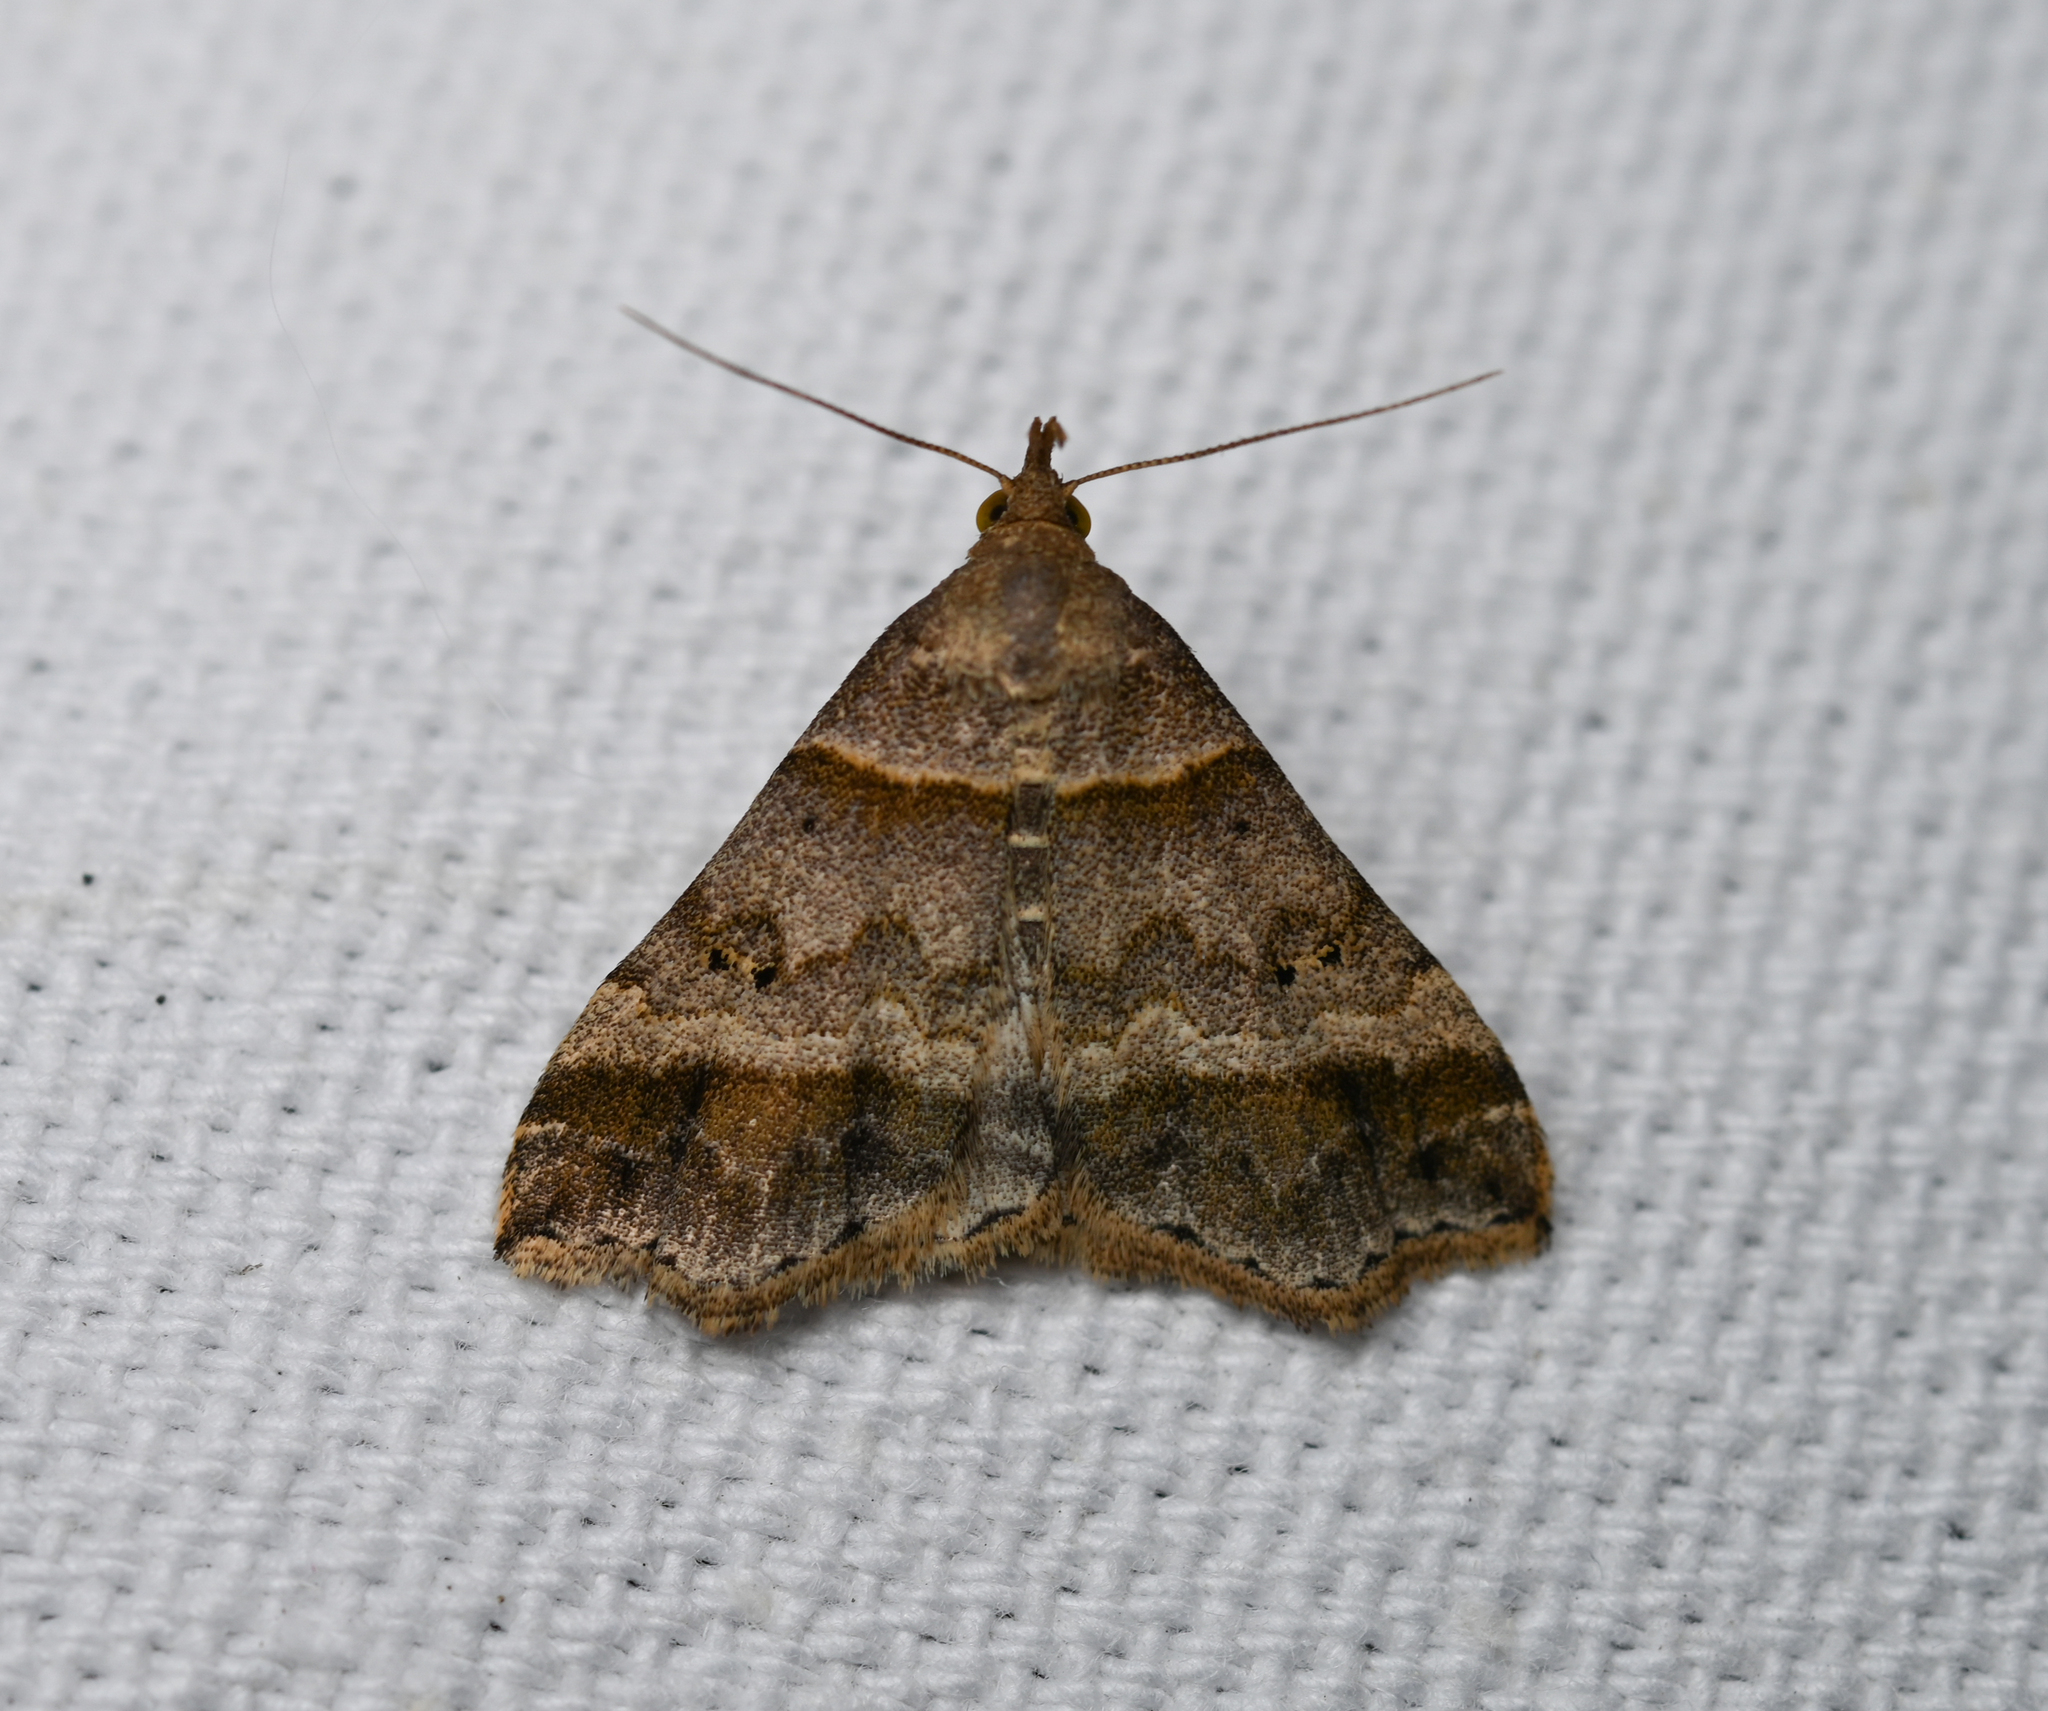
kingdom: Animalia
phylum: Arthropoda
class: Insecta
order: Lepidoptera
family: Erebidae
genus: Phaeolita
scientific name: Phaeolita pyramusalis
